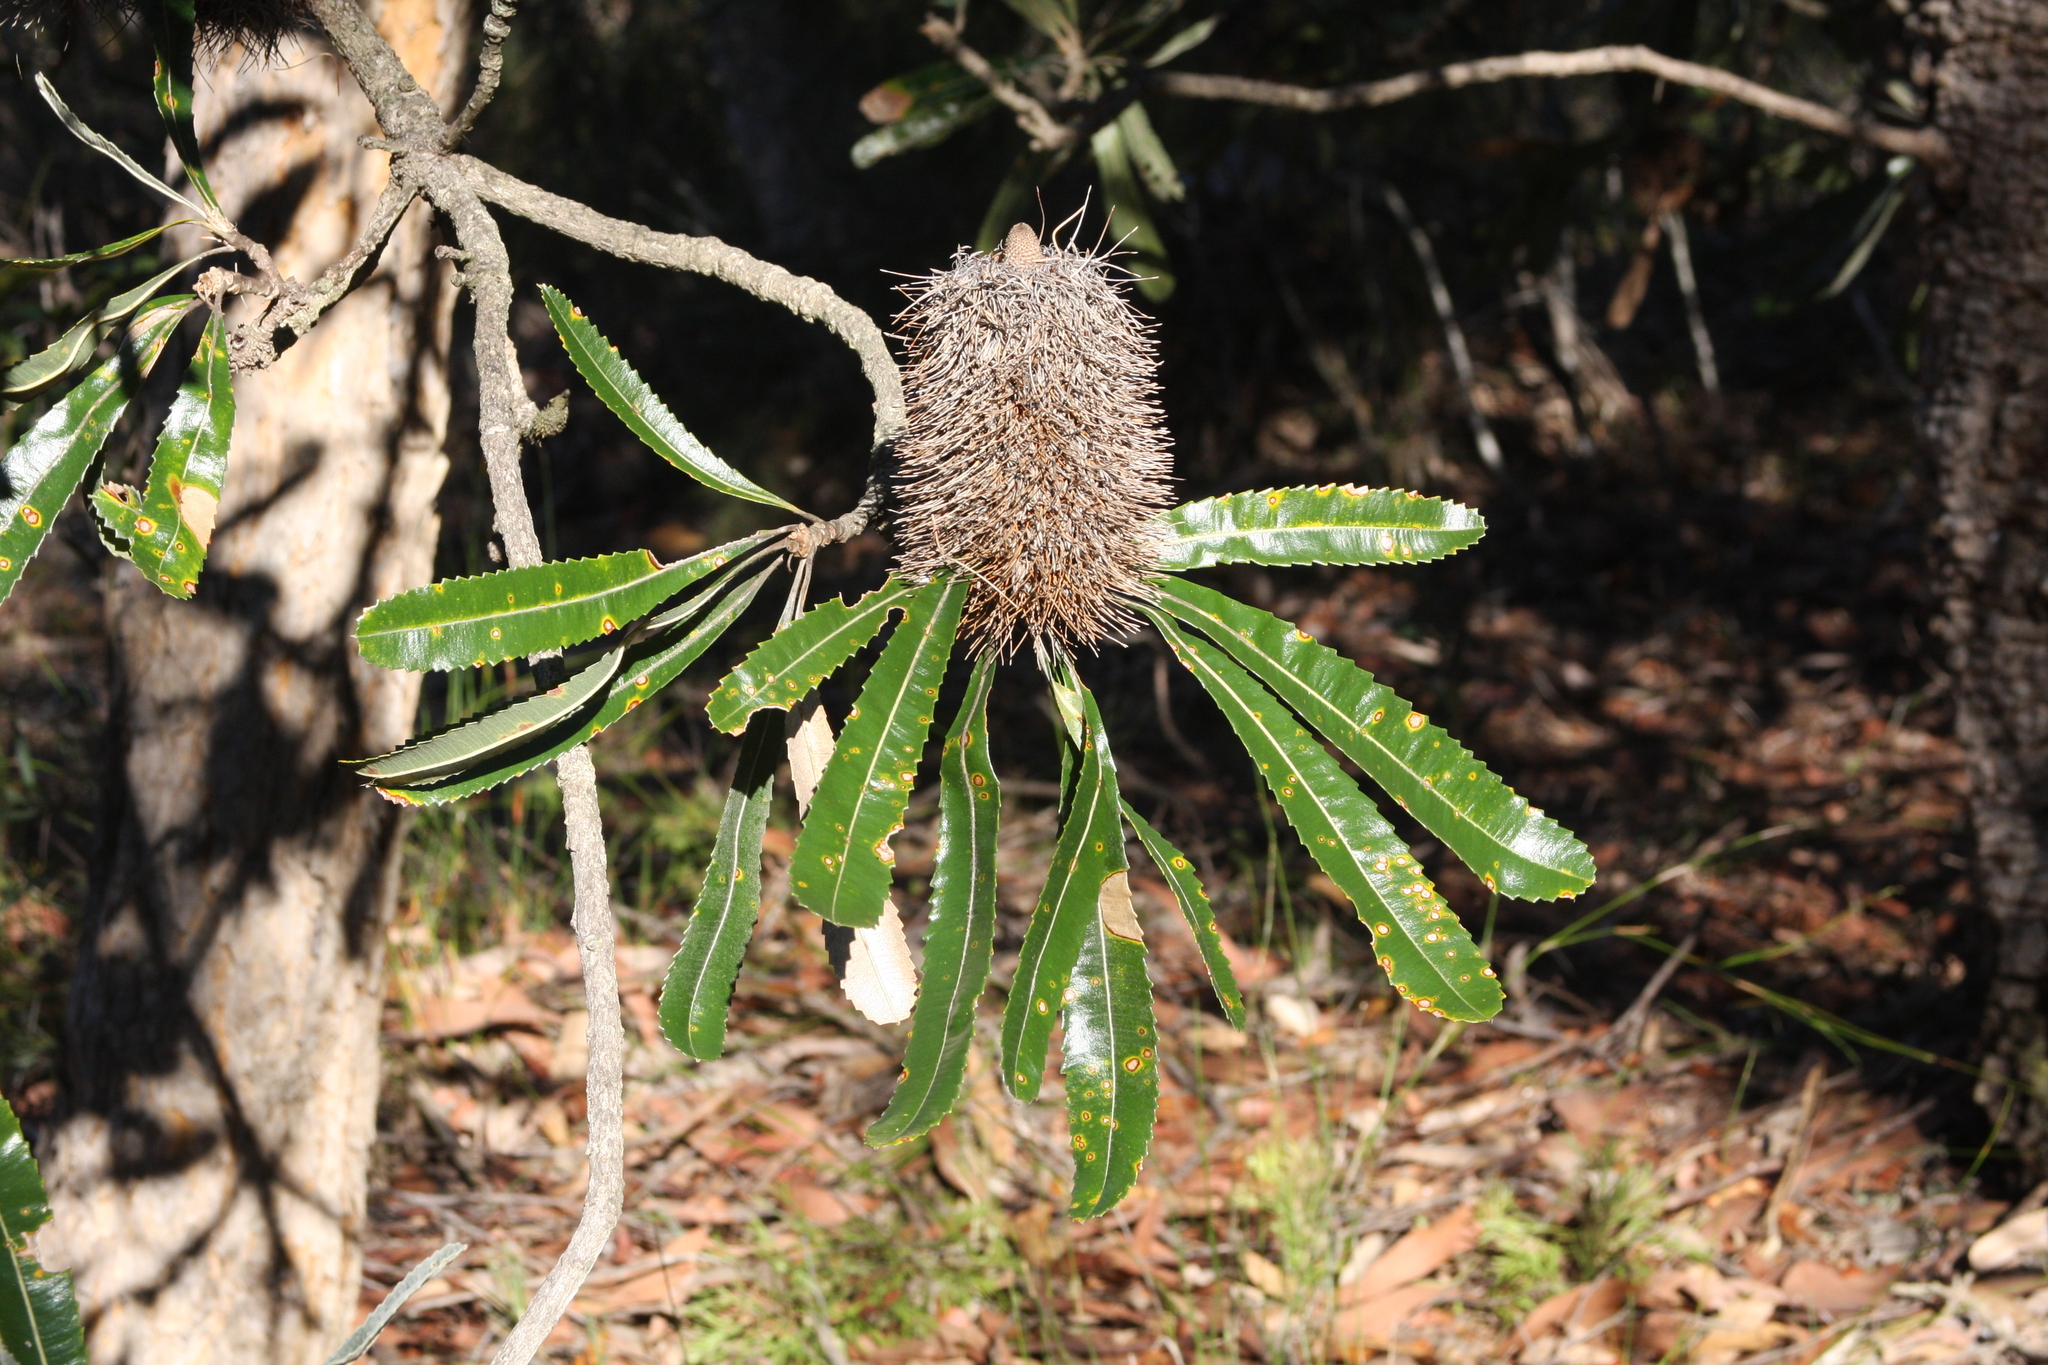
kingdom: Plantae
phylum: Tracheophyta
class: Magnoliopsida
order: Proteales
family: Proteaceae
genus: Banksia
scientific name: Banksia serrata
